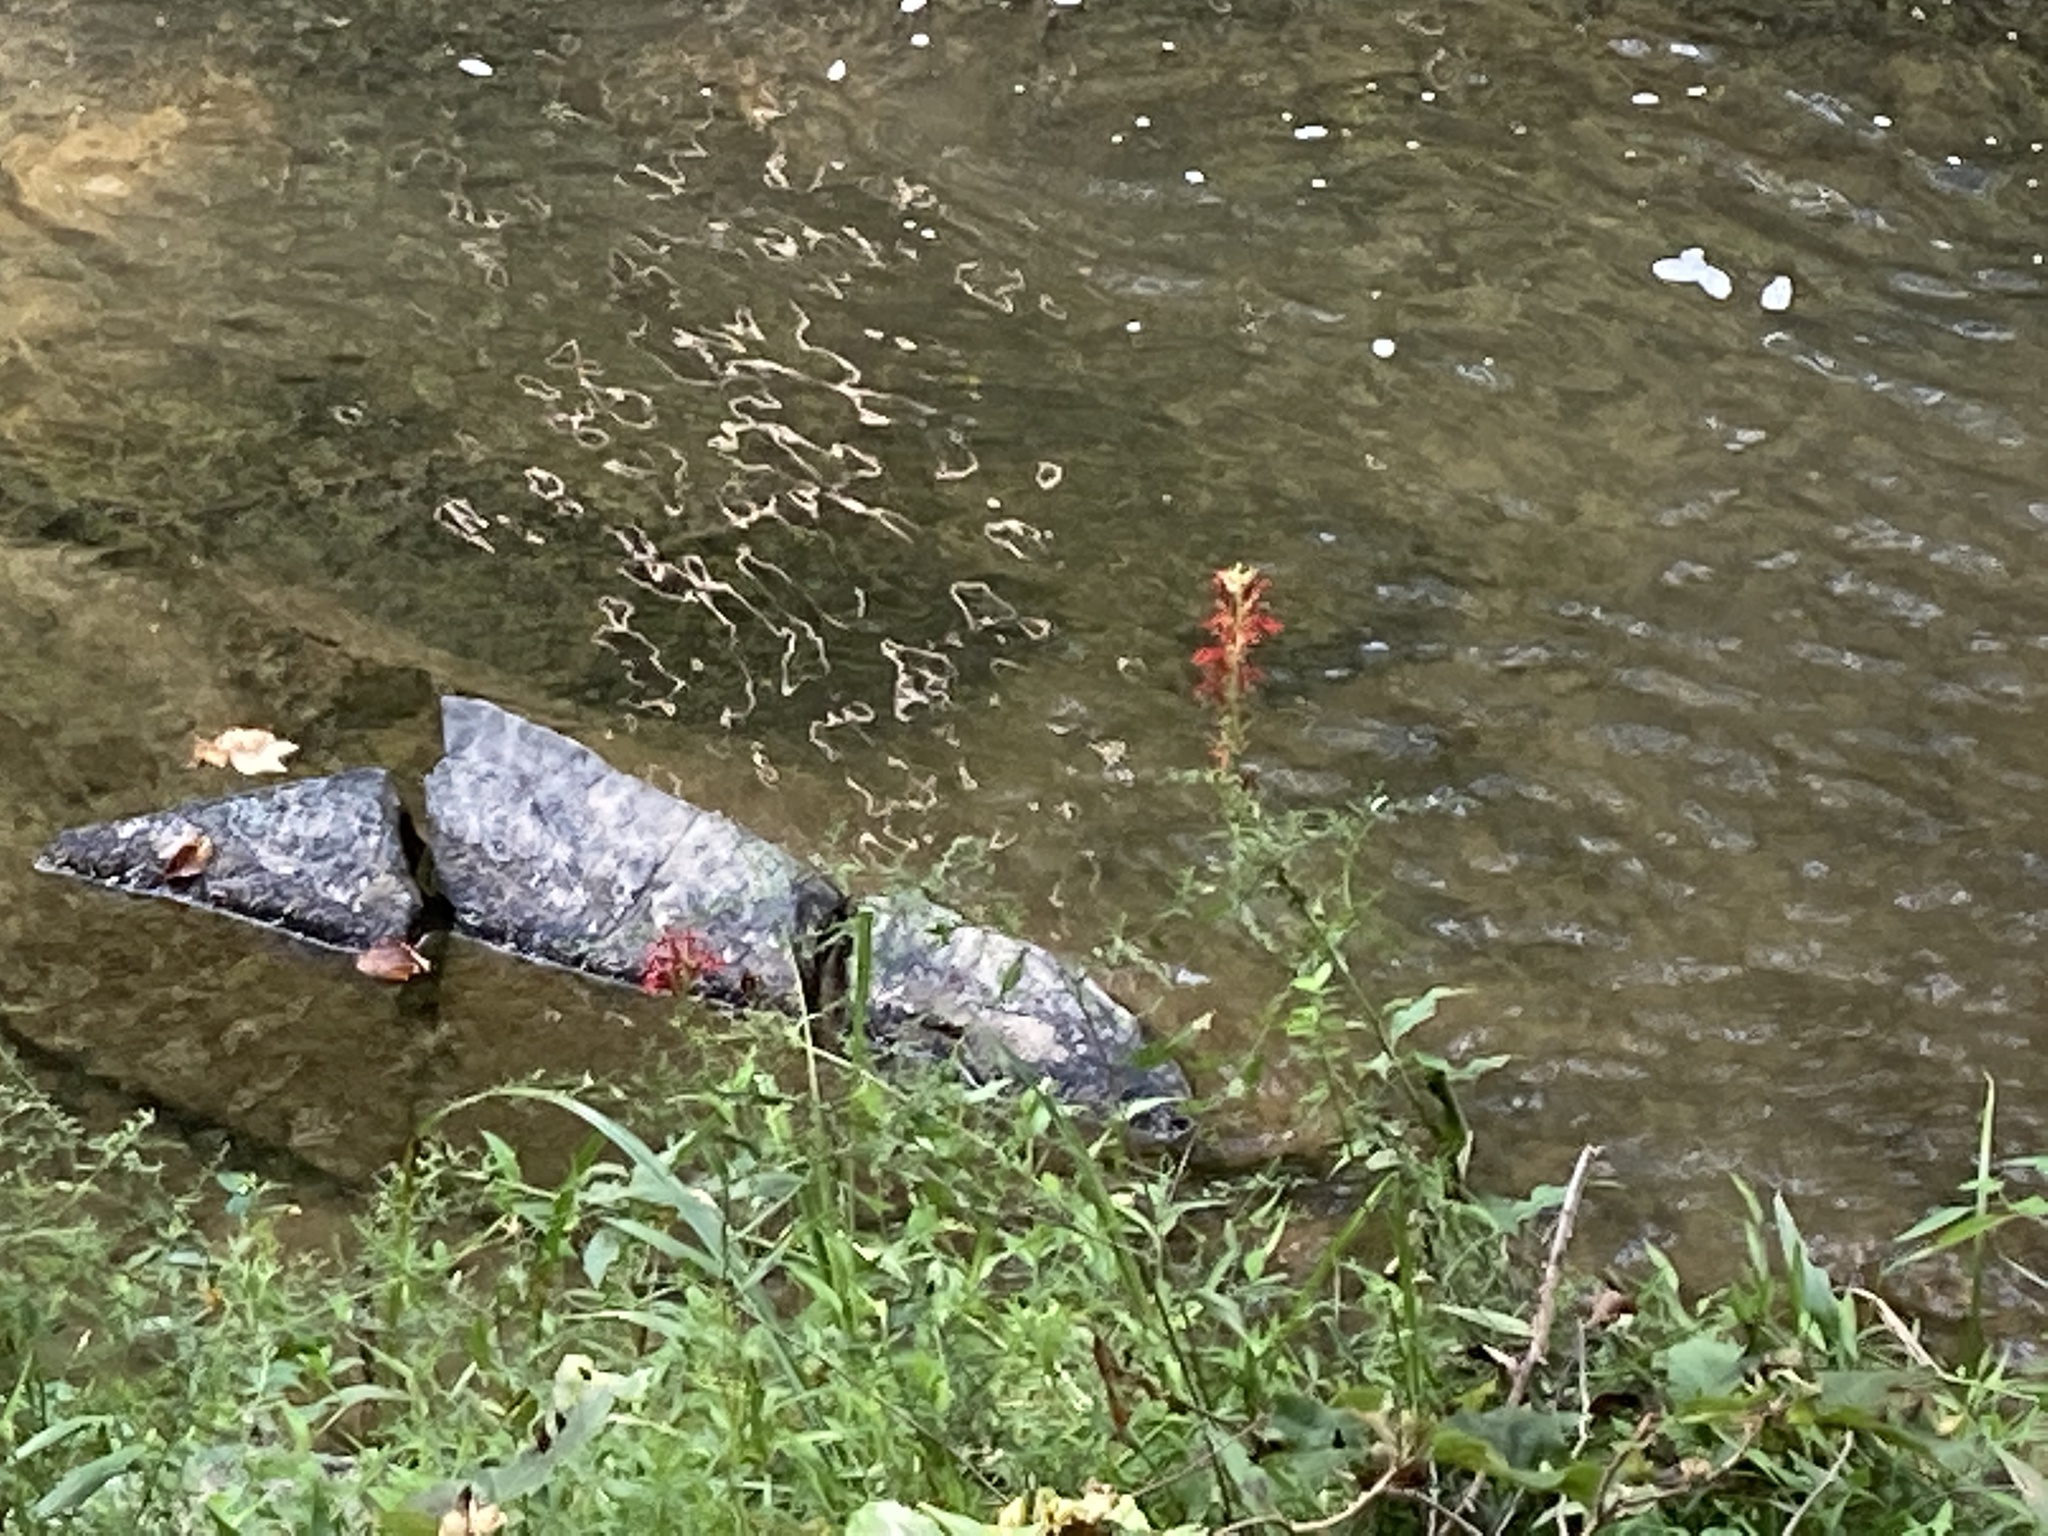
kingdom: Plantae
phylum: Tracheophyta
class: Magnoliopsida
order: Asterales
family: Campanulaceae
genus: Lobelia
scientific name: Lobelia cardinalis
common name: Cardinal flower
